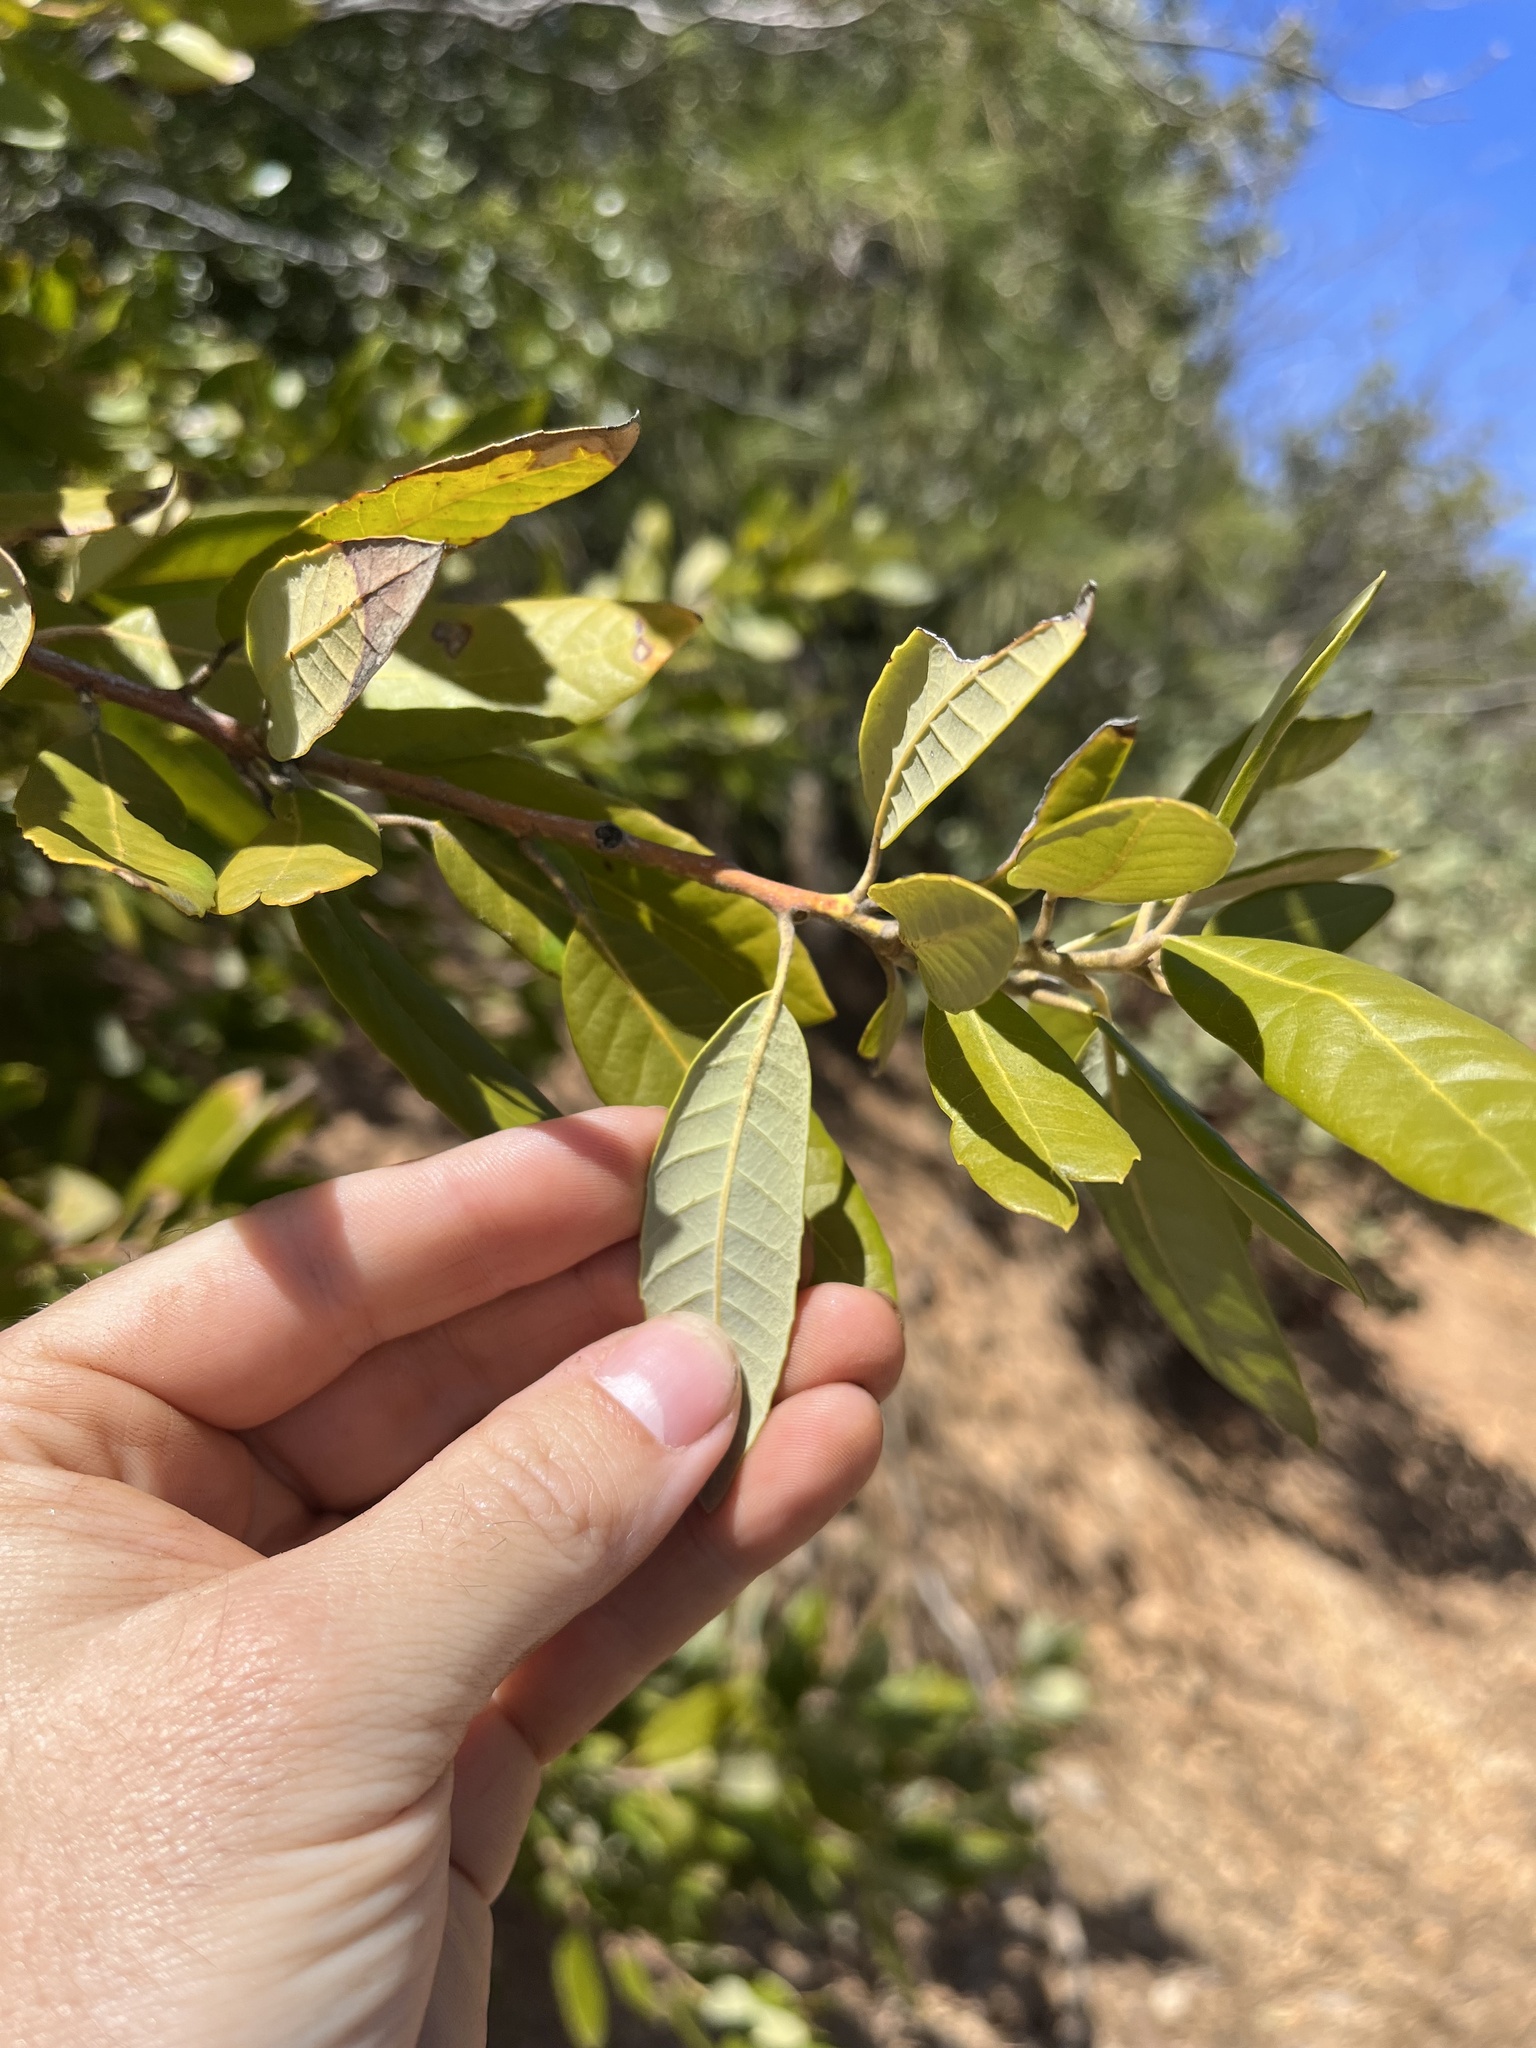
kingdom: Plantae
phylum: Tracheophyta
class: Magnoliopsida
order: Fagales
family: Fagaceae
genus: Notholithocarpus
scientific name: Notholithocarpus densiflorus
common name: Tan bark oak
